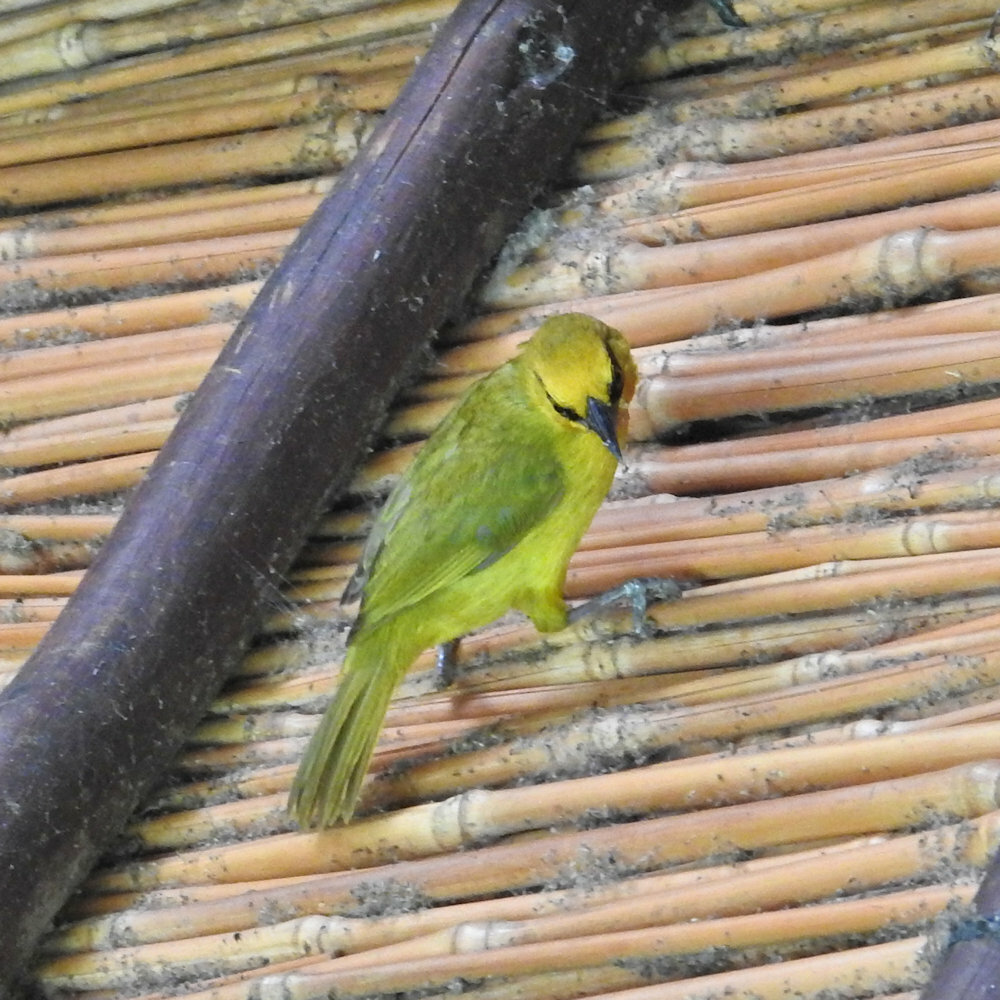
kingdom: Animalia
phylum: Chordata
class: Aves
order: Passeriformes
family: Ploceidae
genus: Ploceus
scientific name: Ploceus ocularis
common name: Spectacled weaver
